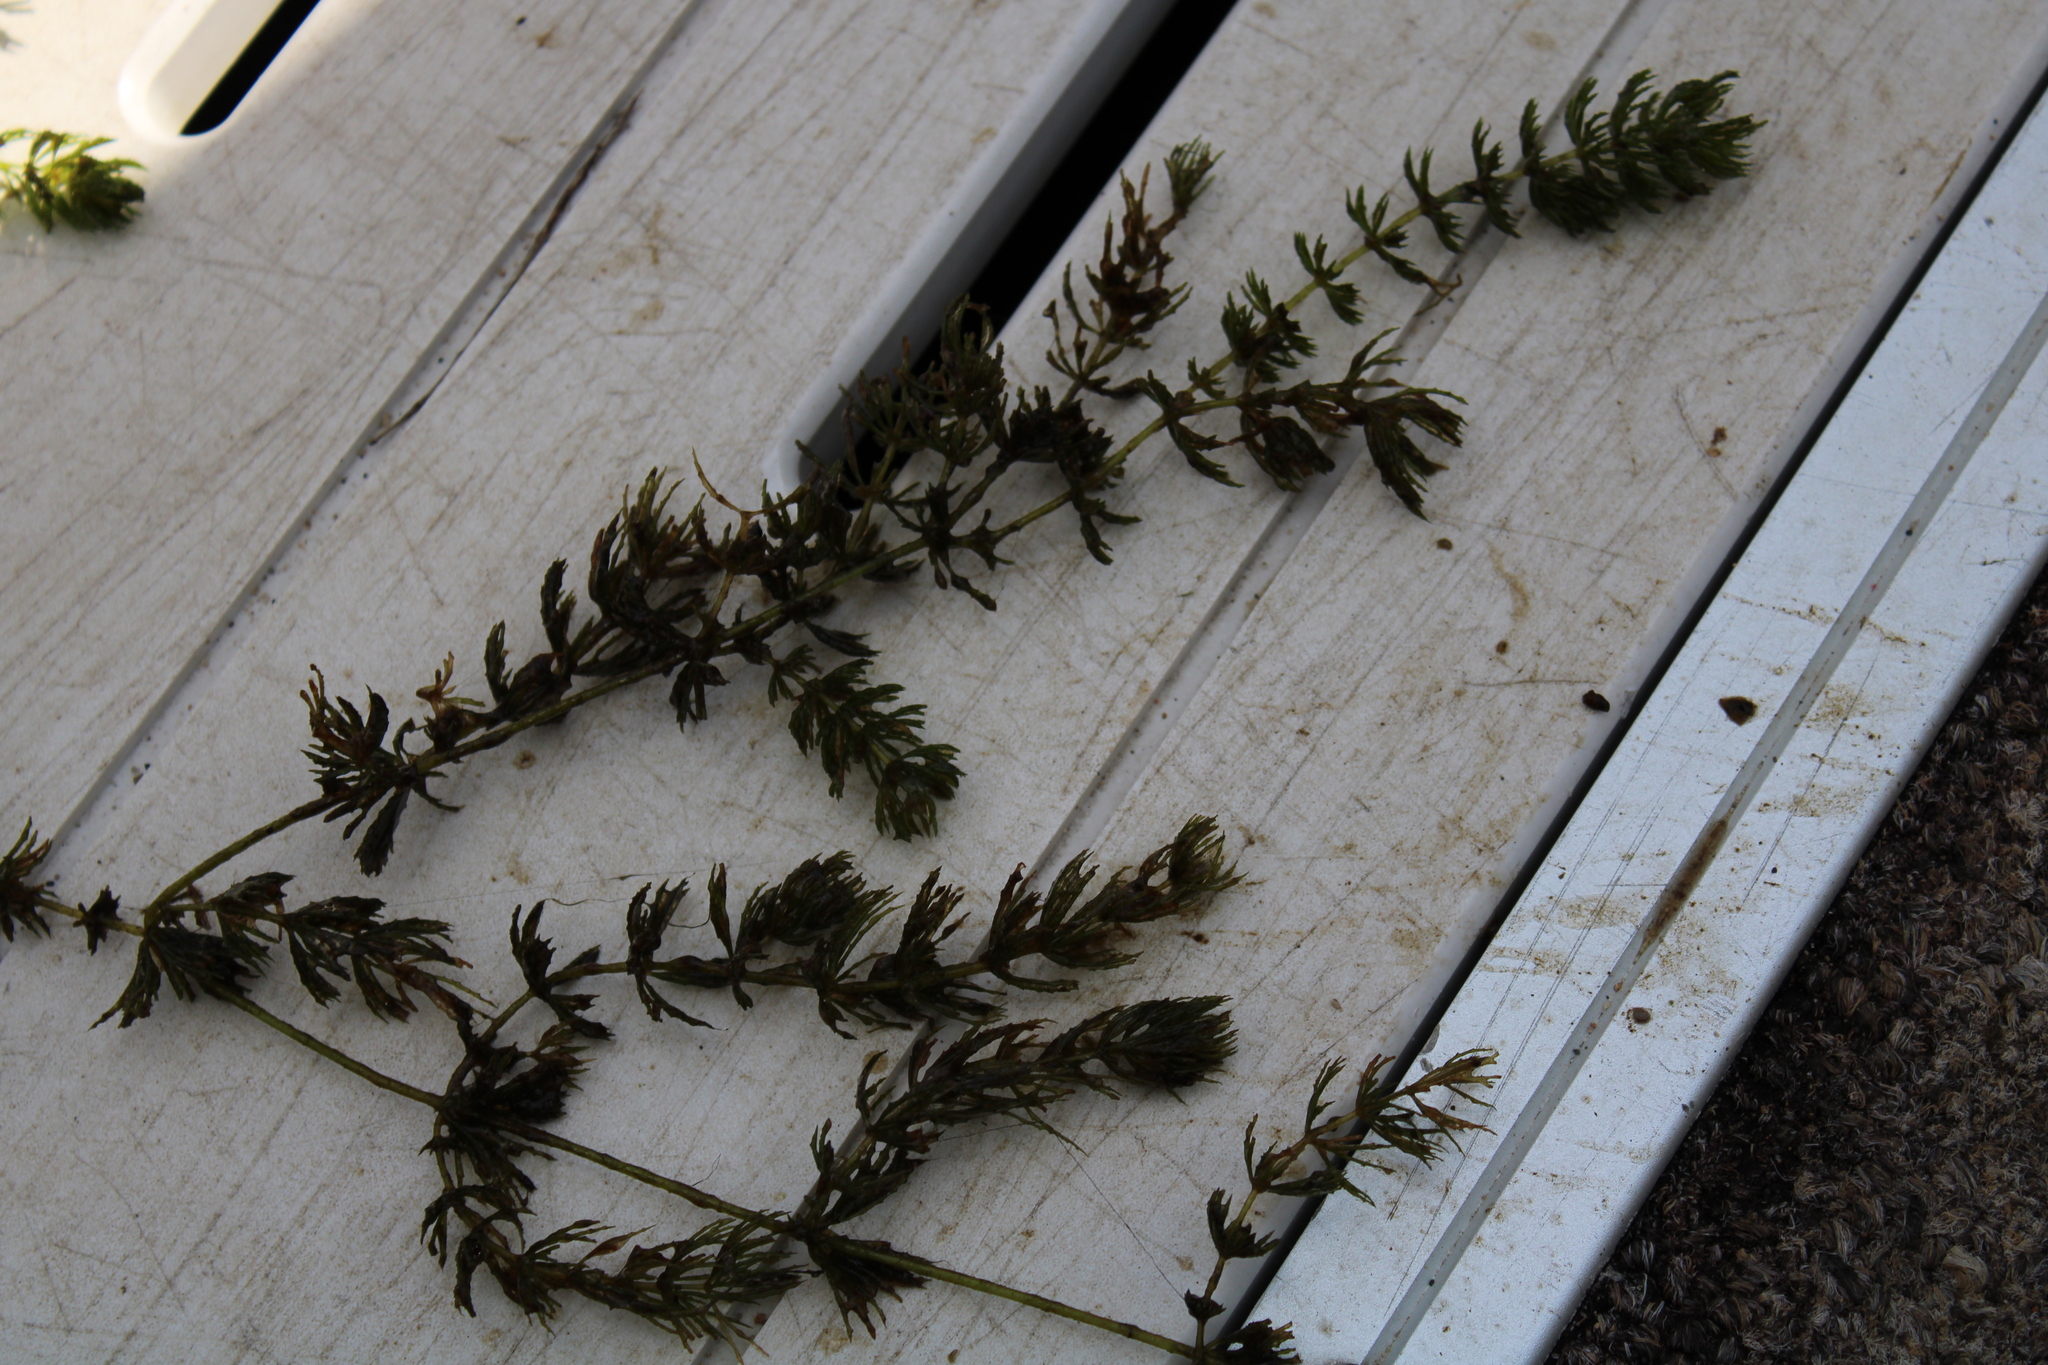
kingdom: Plantae
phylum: Tracheophyta
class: Magnoliopsida
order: Ceratophyllales
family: Ceratophyllaceae
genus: Ceratophyllum
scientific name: Ceratophyllum demersum
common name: Rigid hornwort
